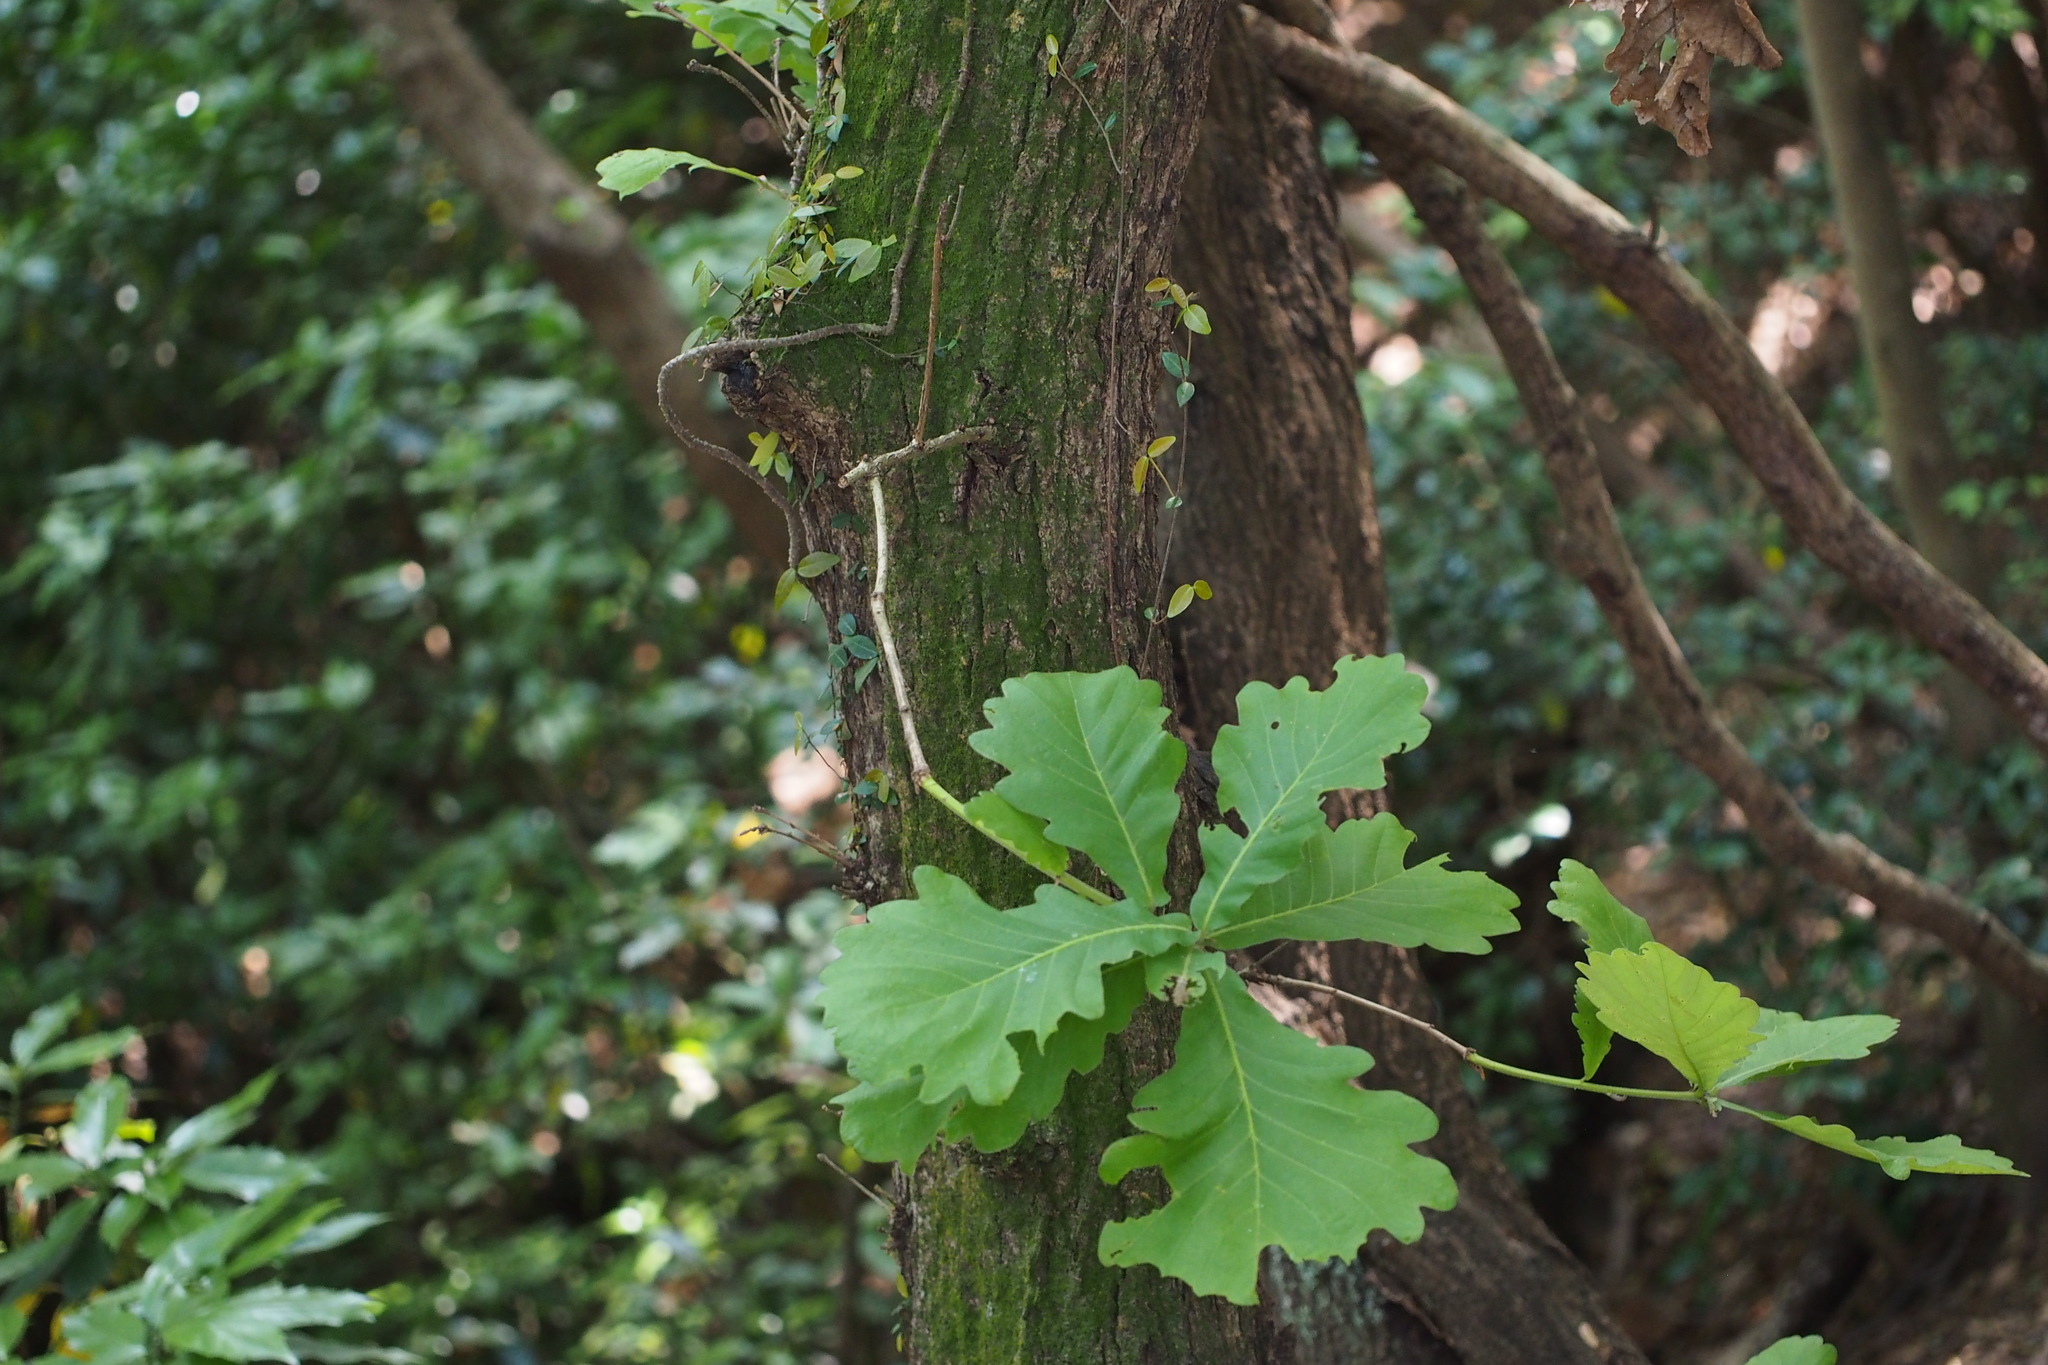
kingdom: Plantae
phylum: Tracheophyta
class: Magnoliopsida
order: Fagales
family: Fagaceae
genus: Quercus
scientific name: Quercus dentata
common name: Daimyo oak
